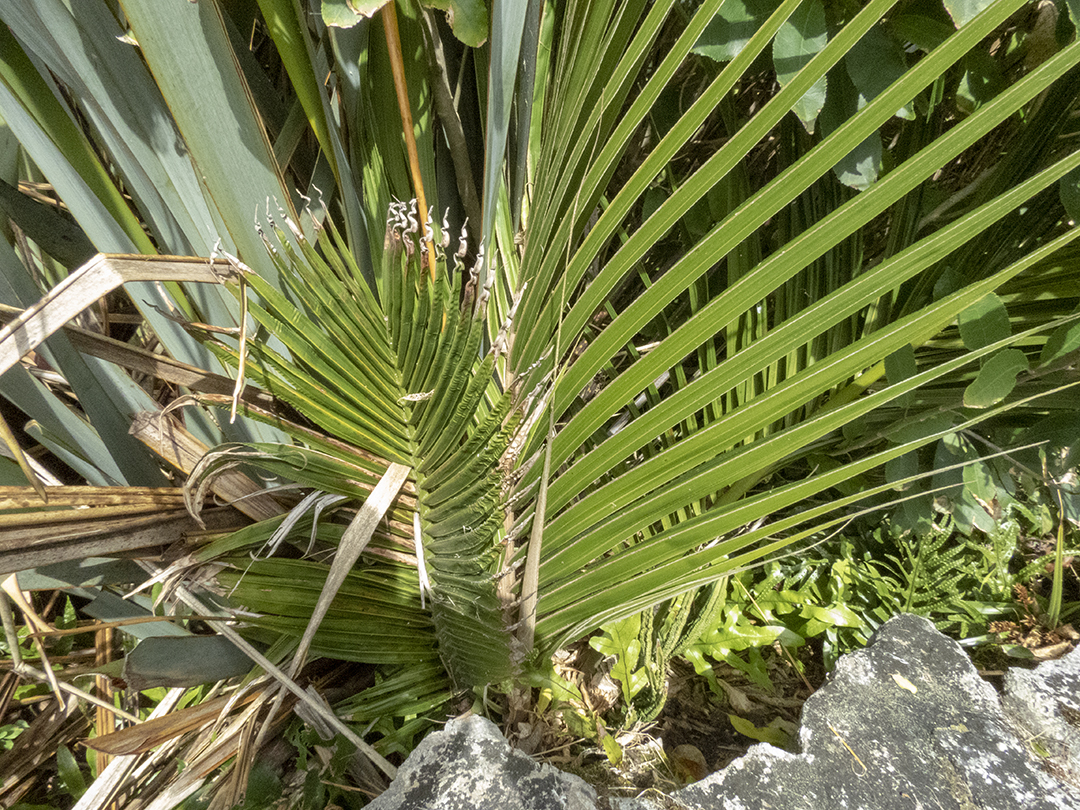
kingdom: Plantae
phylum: Tracheophyta
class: Liliopsida
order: Arecales
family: Arecaceae
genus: Rhopalostylis
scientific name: Rhopalostylis sapida
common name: Feather-duster palm
